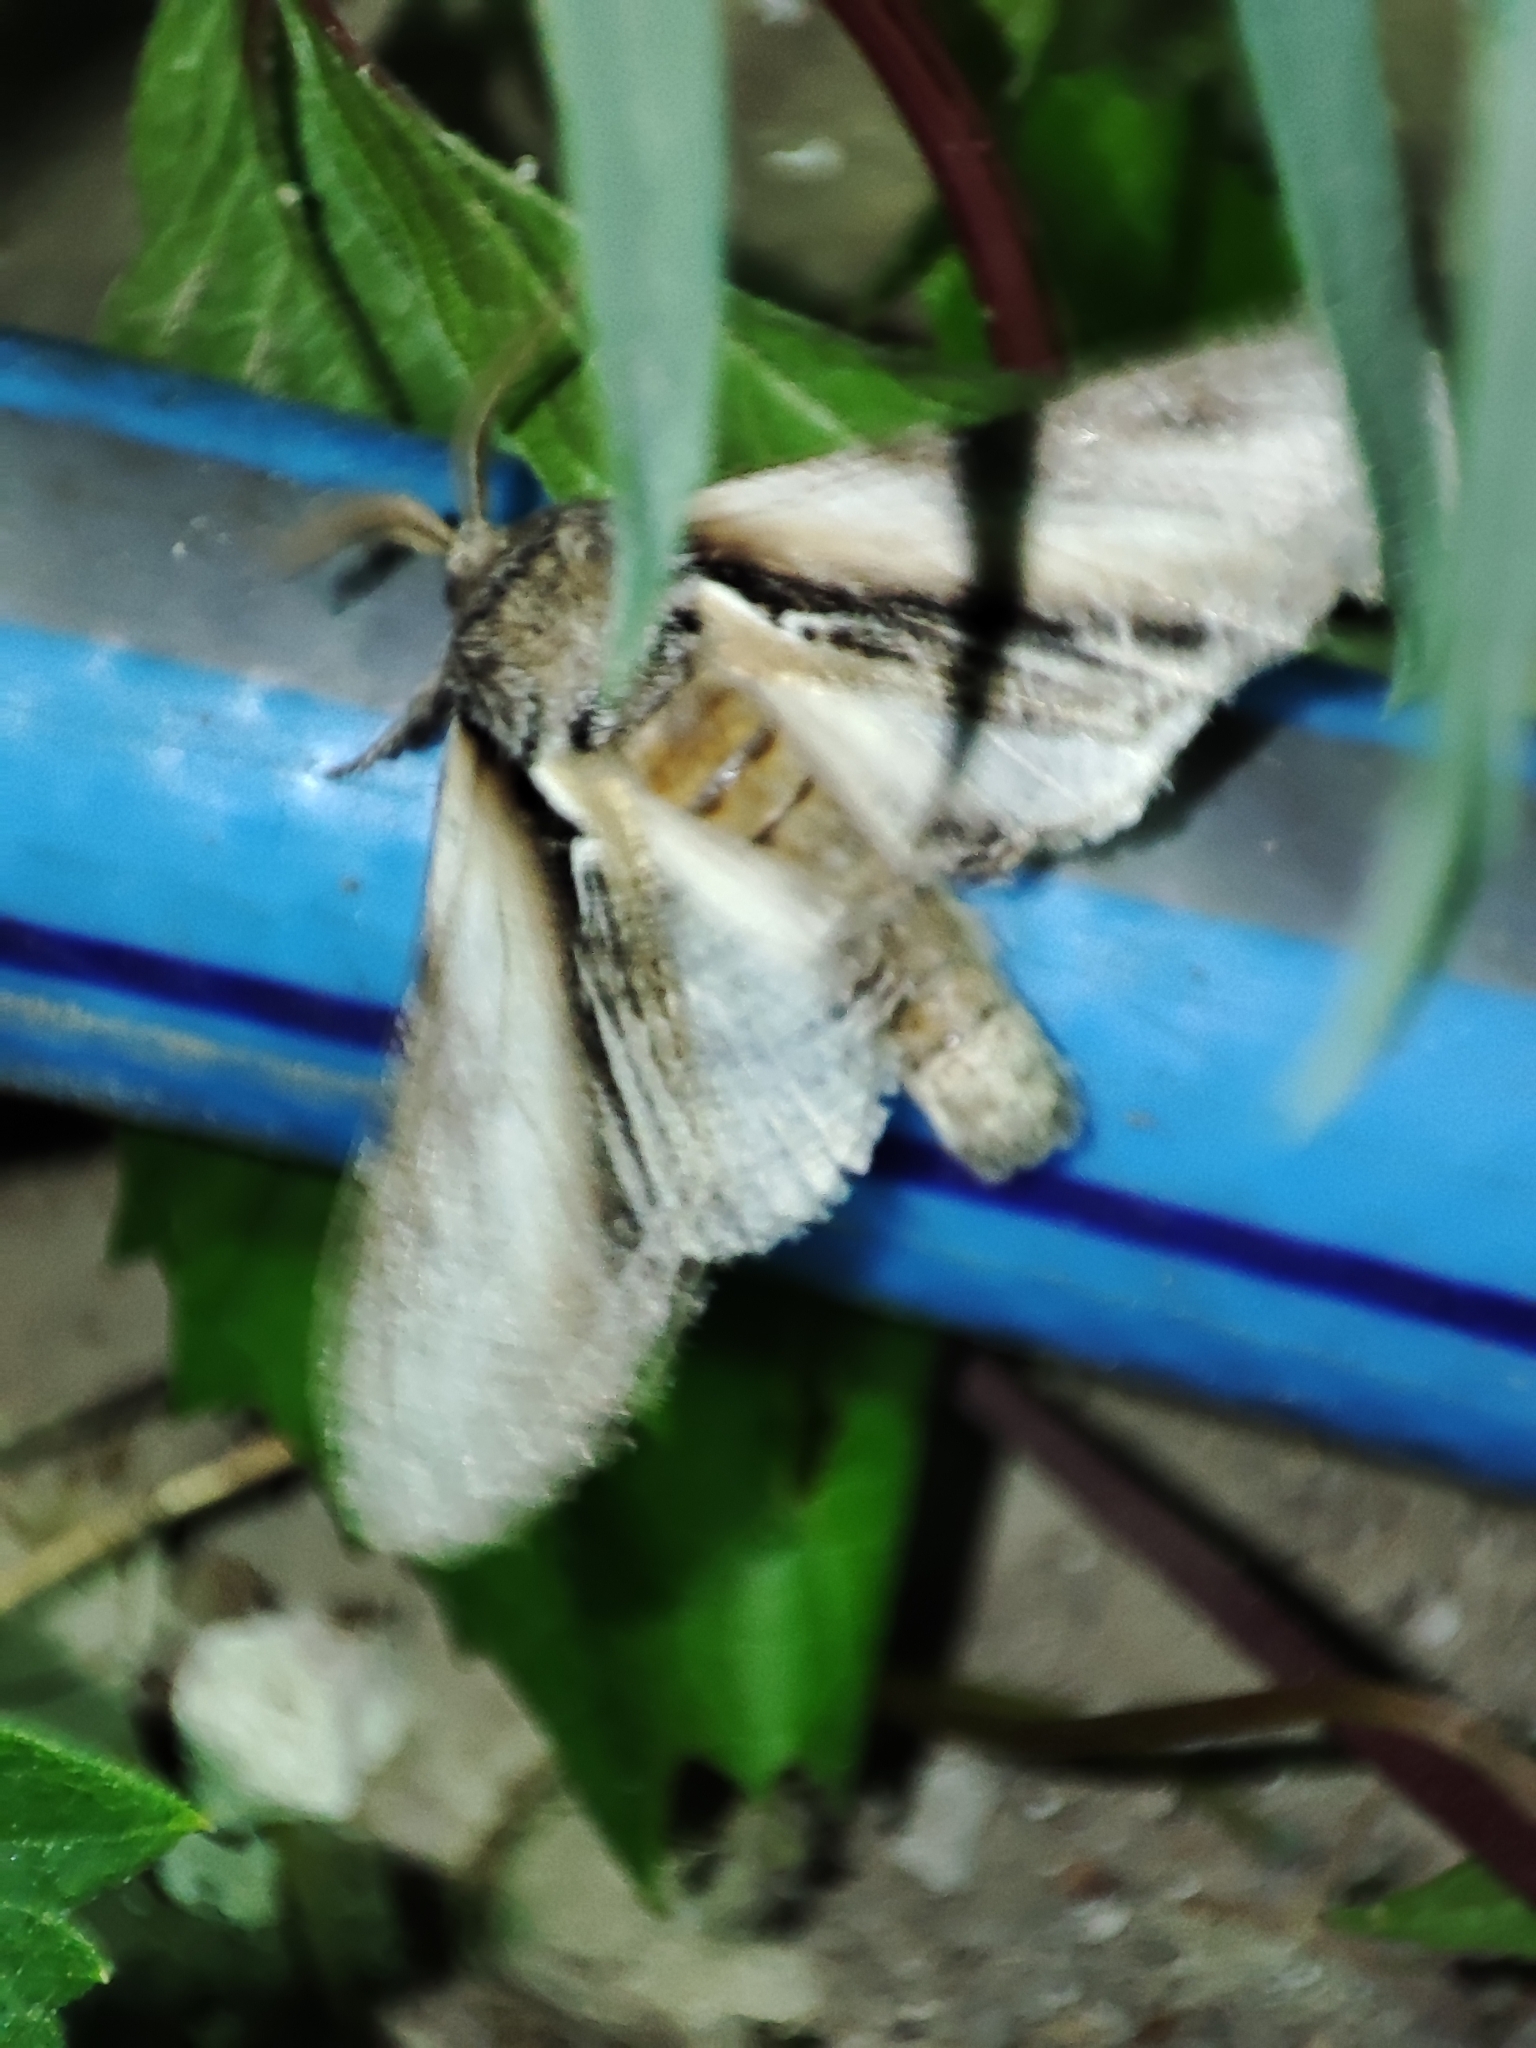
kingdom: Animalia
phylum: Arthropoda
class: Insecta
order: Lepidoptera
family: Notodontidae
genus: Pheosia
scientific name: Pheosia tremula
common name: Swallow prominent
